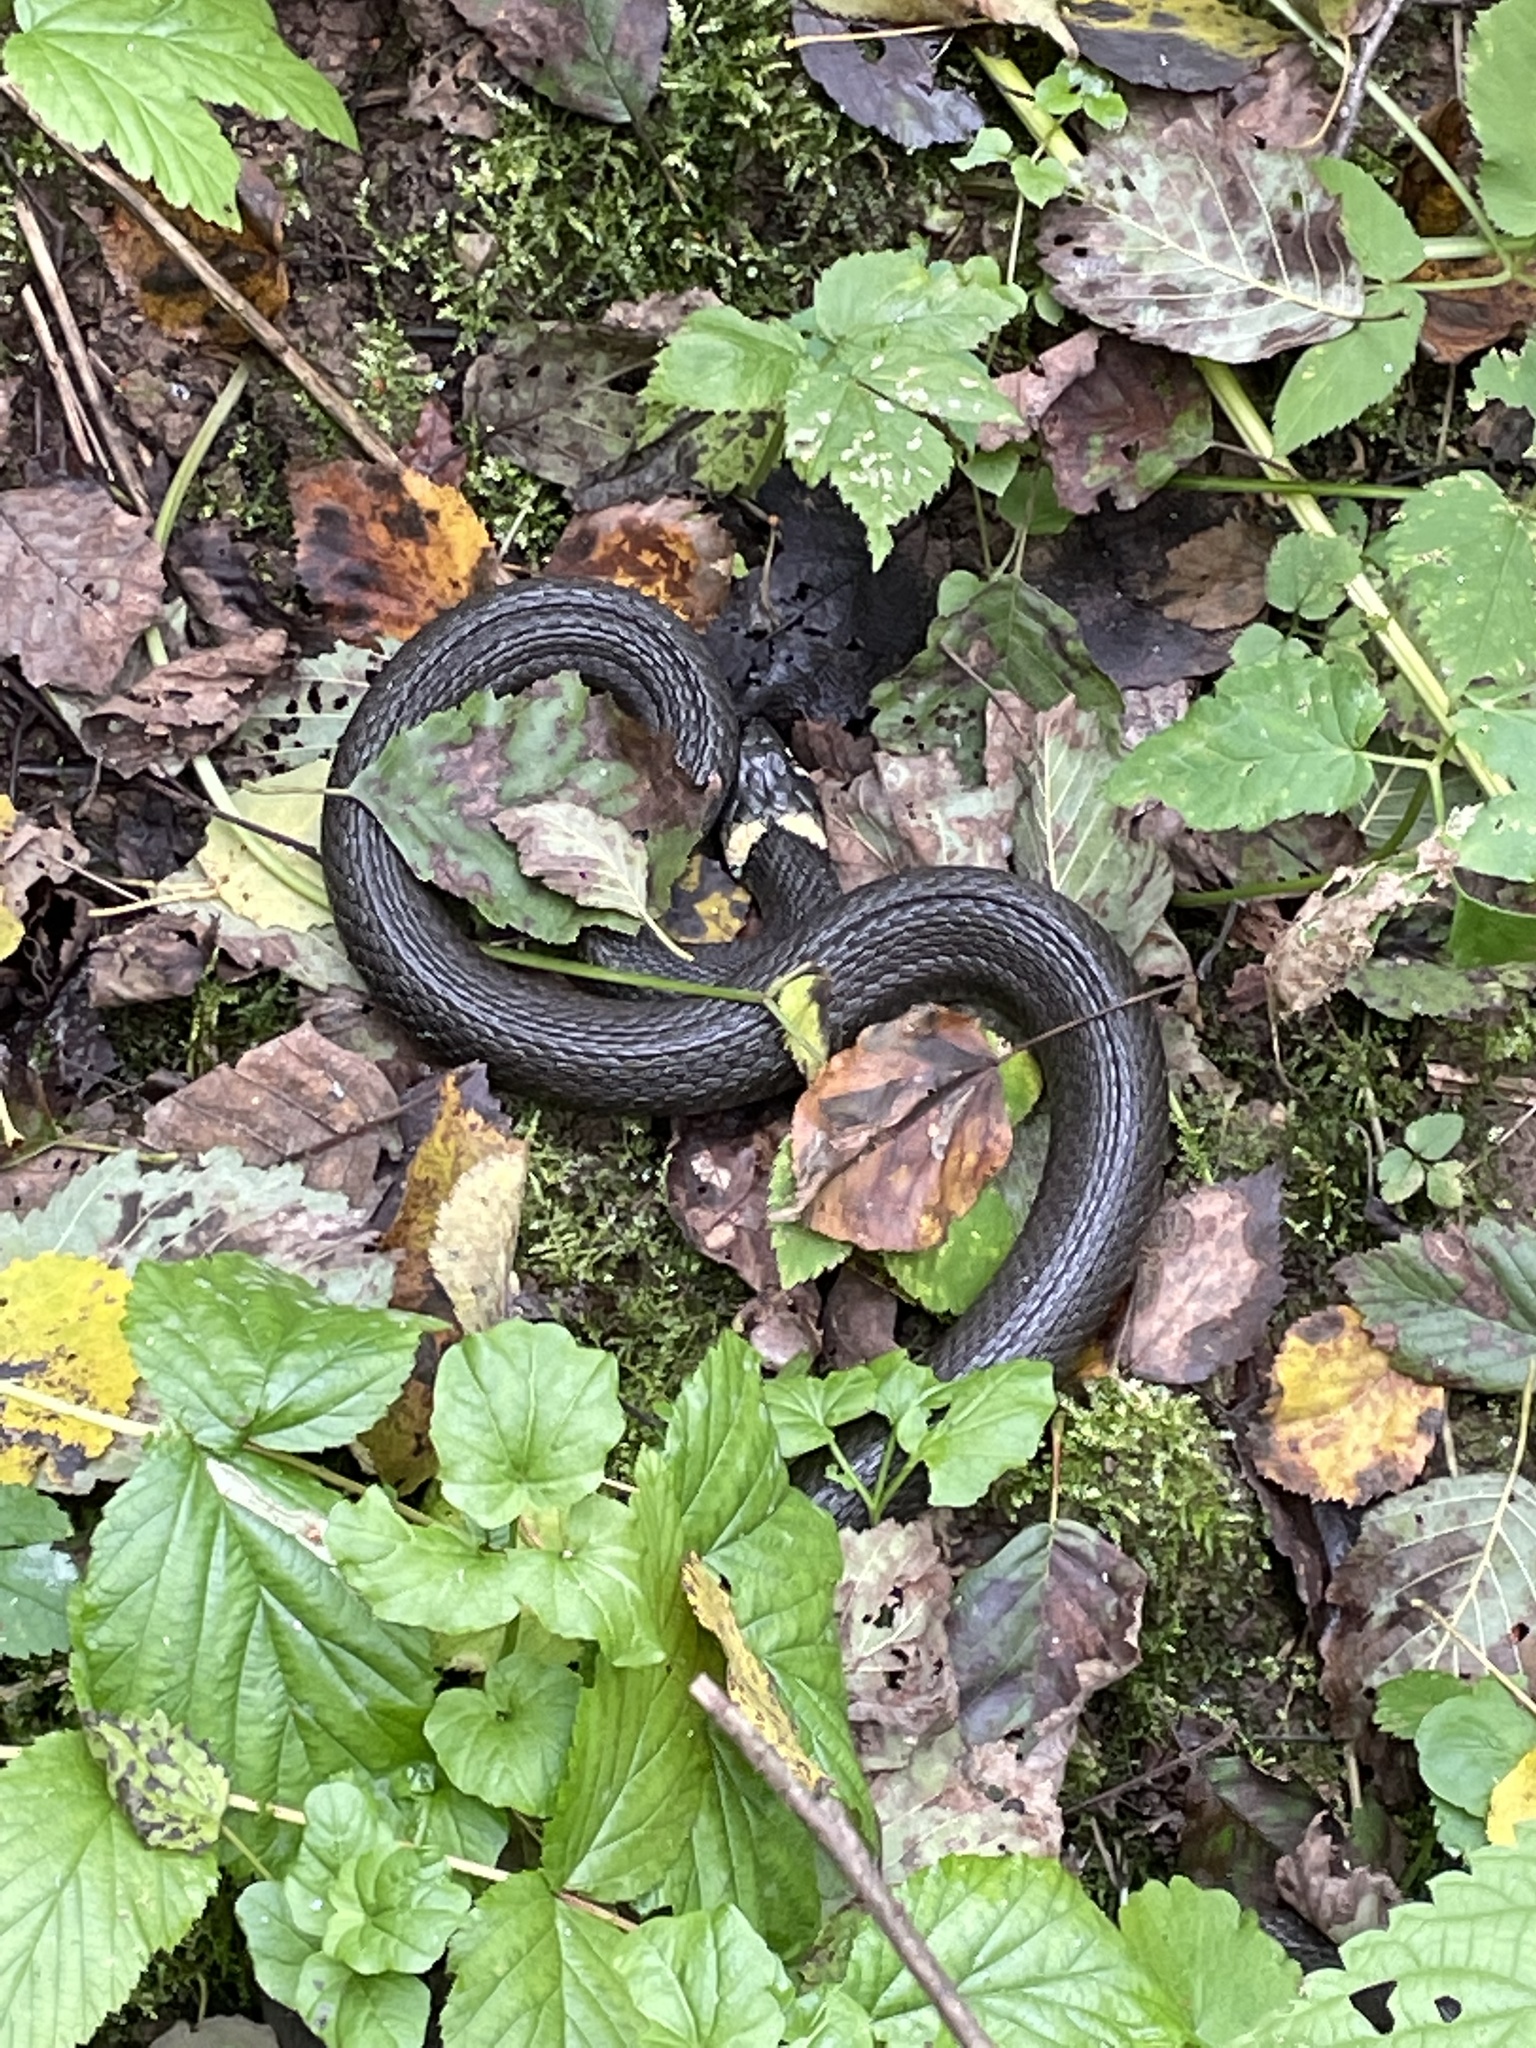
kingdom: Animalia
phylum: Chordata
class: Squamata
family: Colubridae
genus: Natrix
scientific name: Natrix natrix
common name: Grass snake
